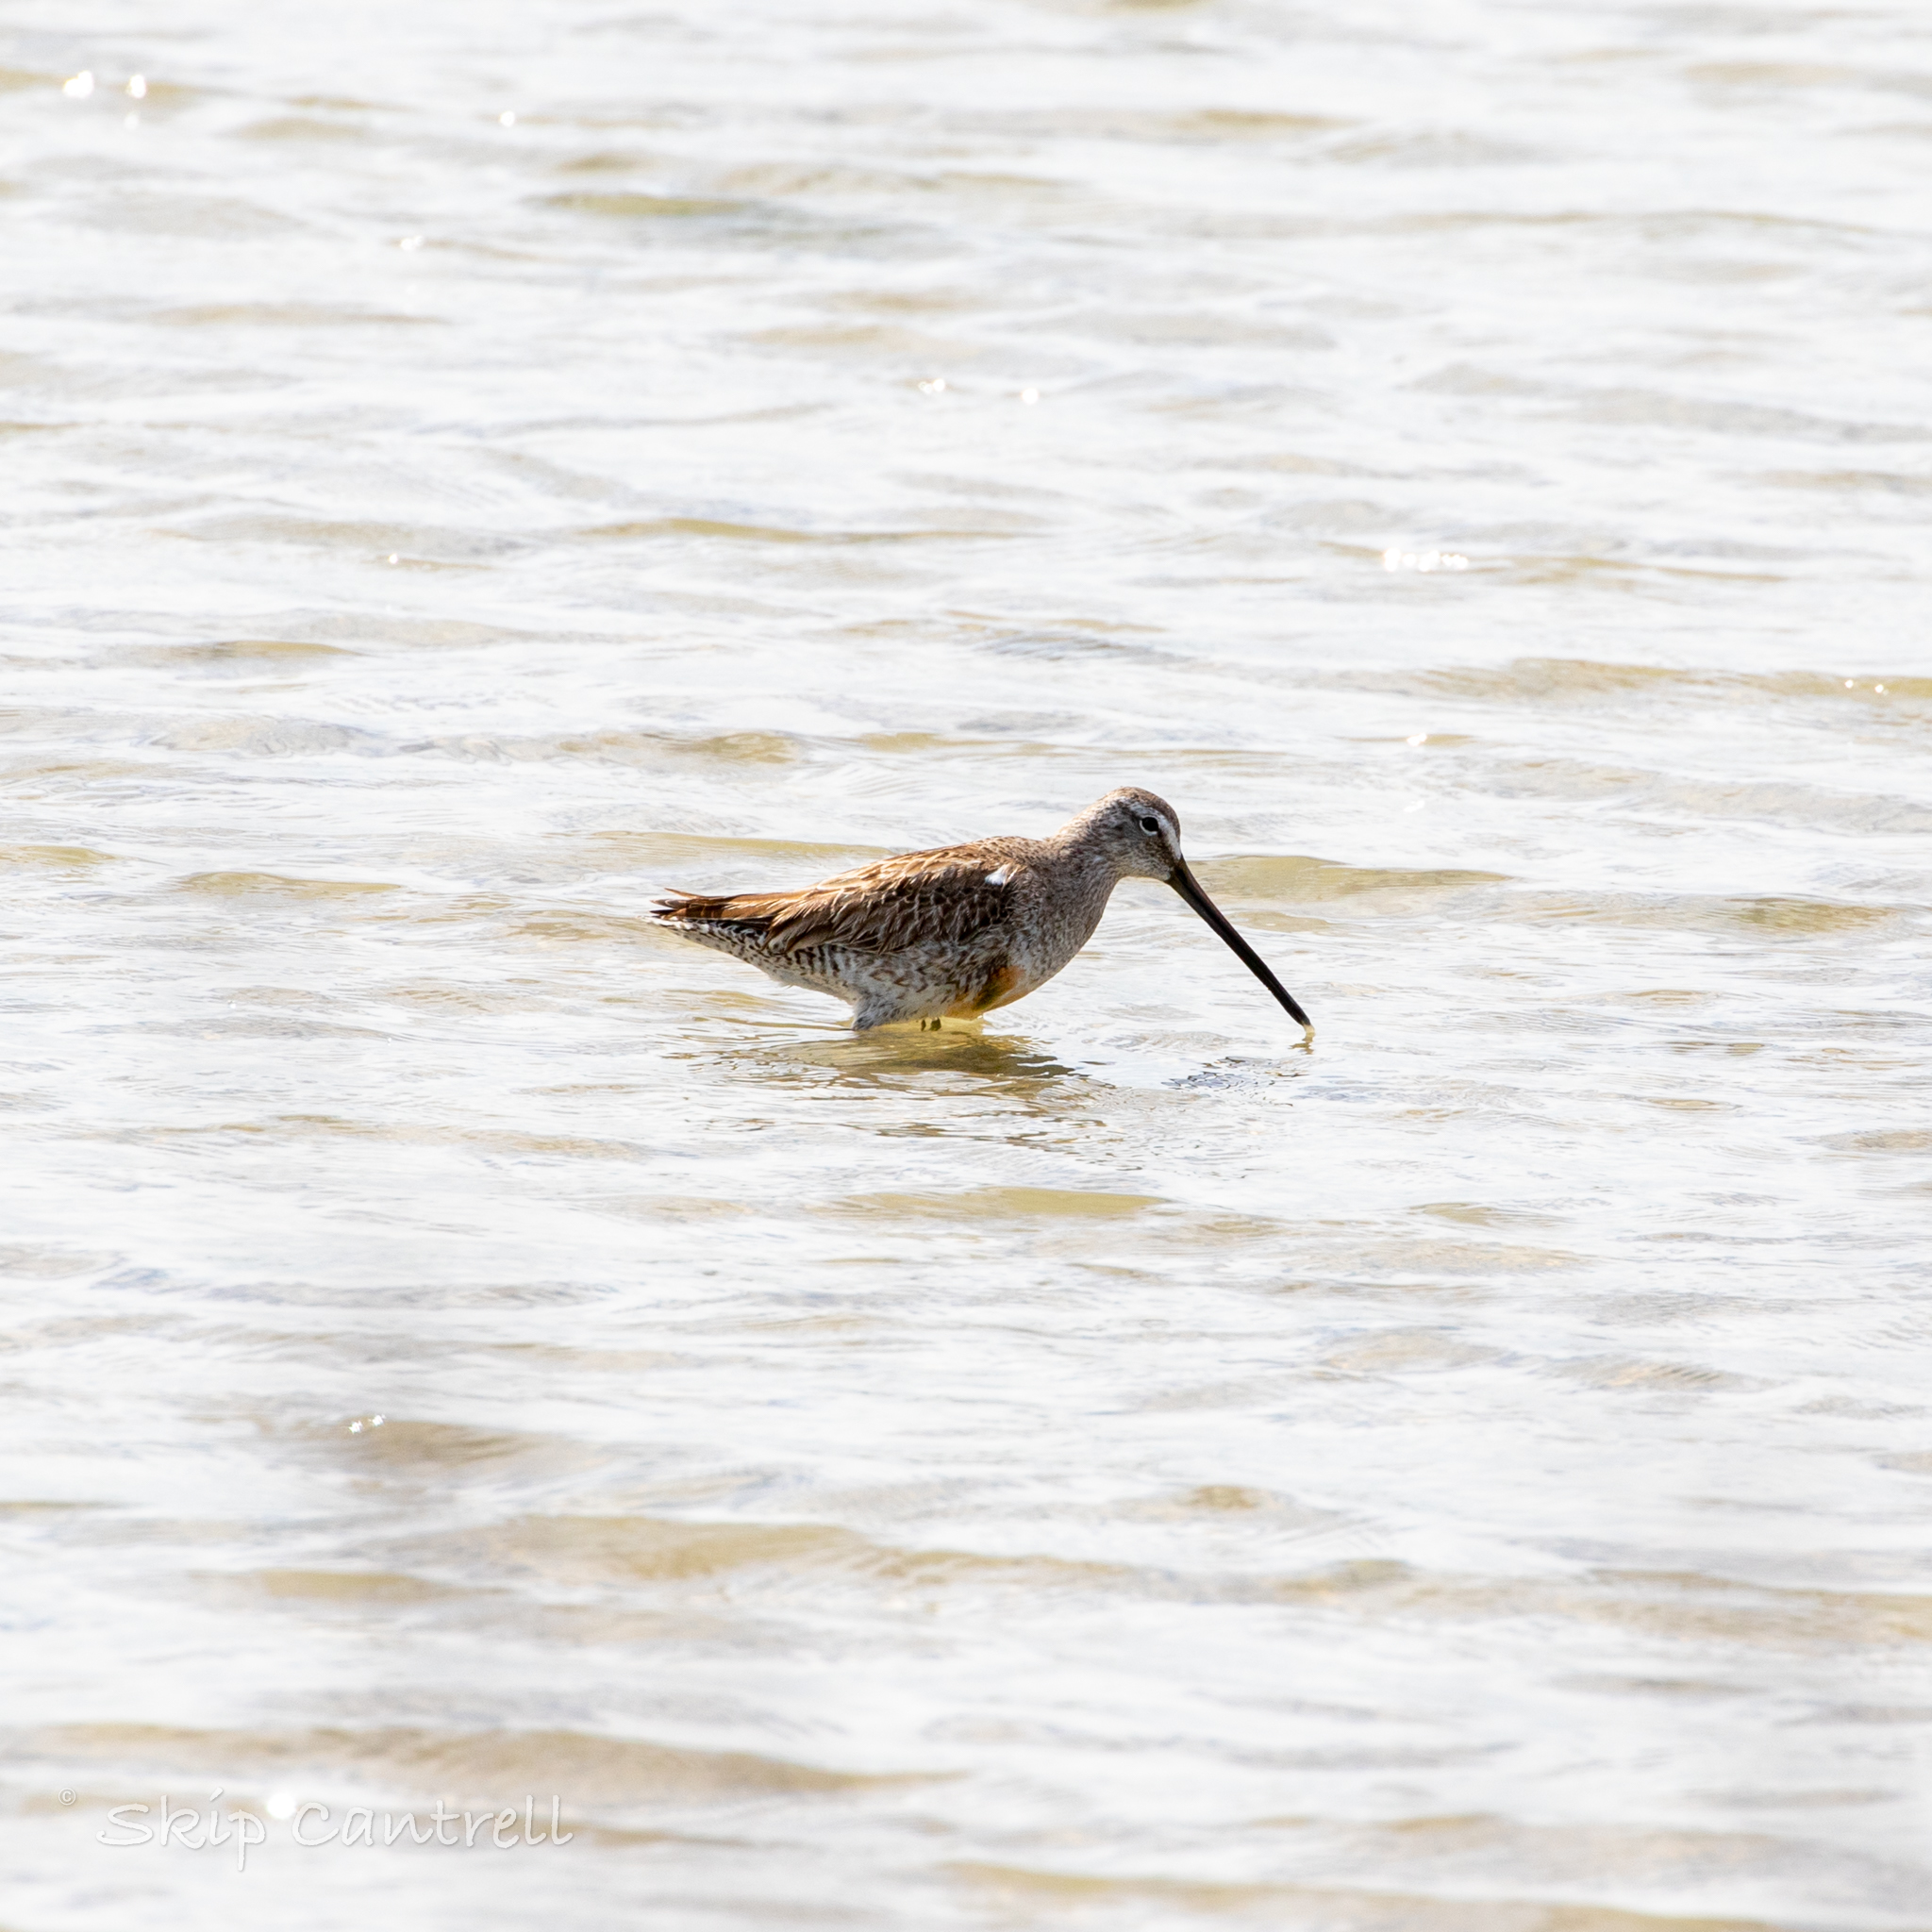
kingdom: Animalia
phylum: Chordata
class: Aves
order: Charadriiformes
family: Scolopacidae
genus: Limnodromus
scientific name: Limnodromus scolopaceus
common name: Long-billed dowitcher
